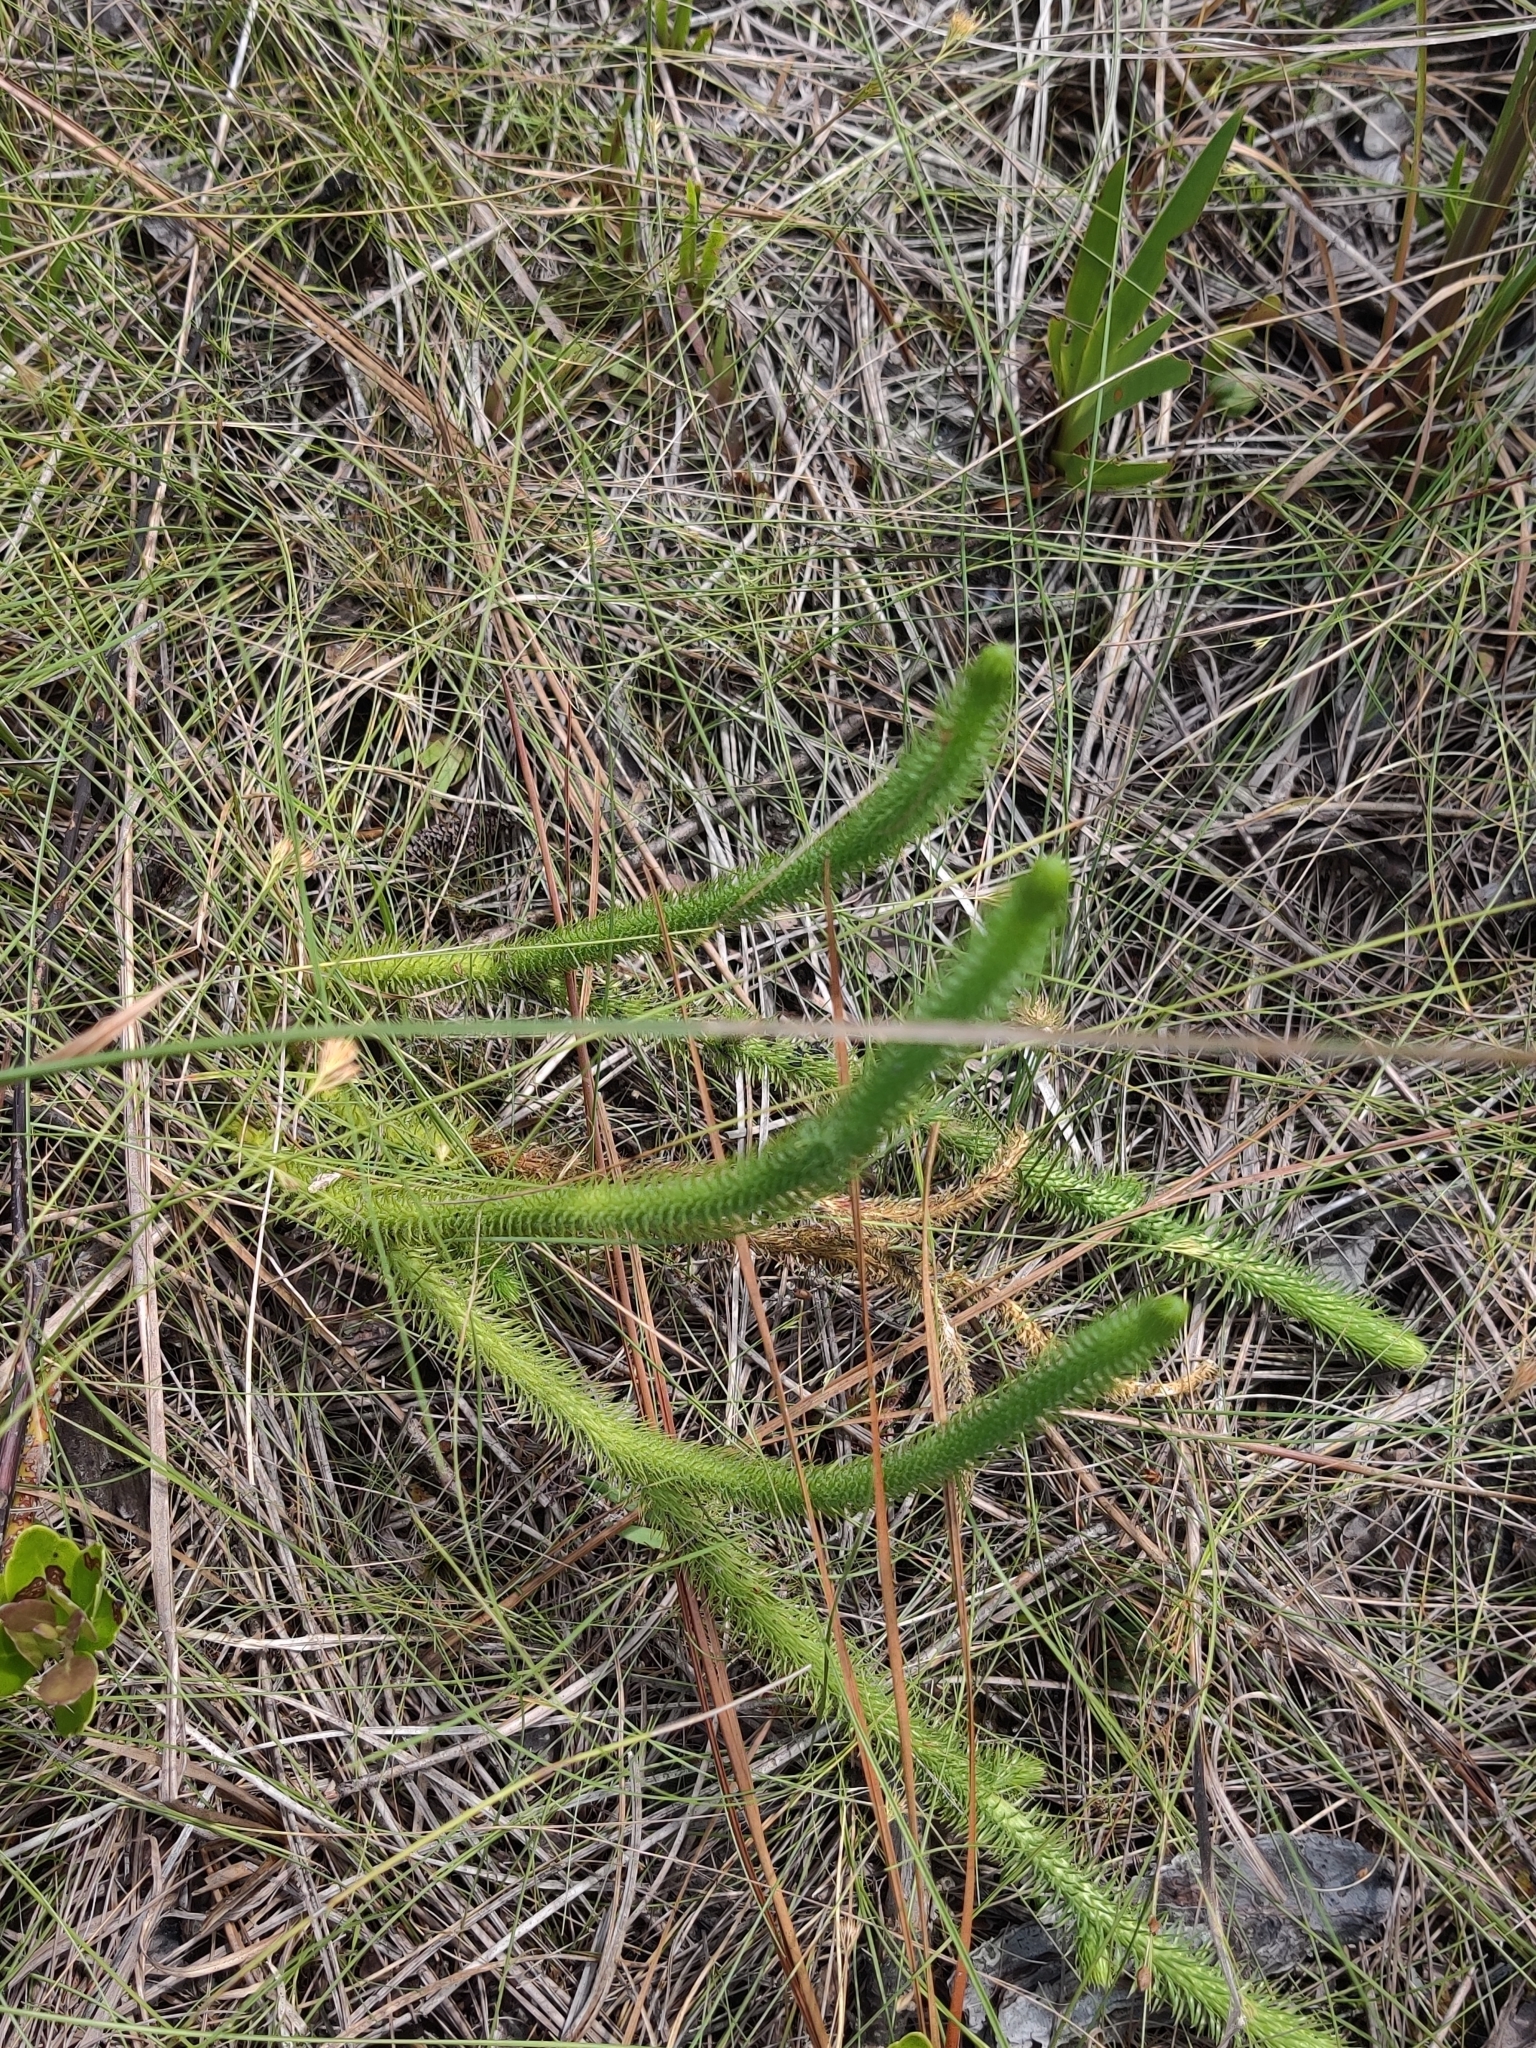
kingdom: Plantae
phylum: Tracheophyta
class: Lycopodiopsida
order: Lycopodiales
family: Lycopodiaceae
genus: Lycopodiella
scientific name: Lycopodiella alopecuroides
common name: Foxtail clubmoss
